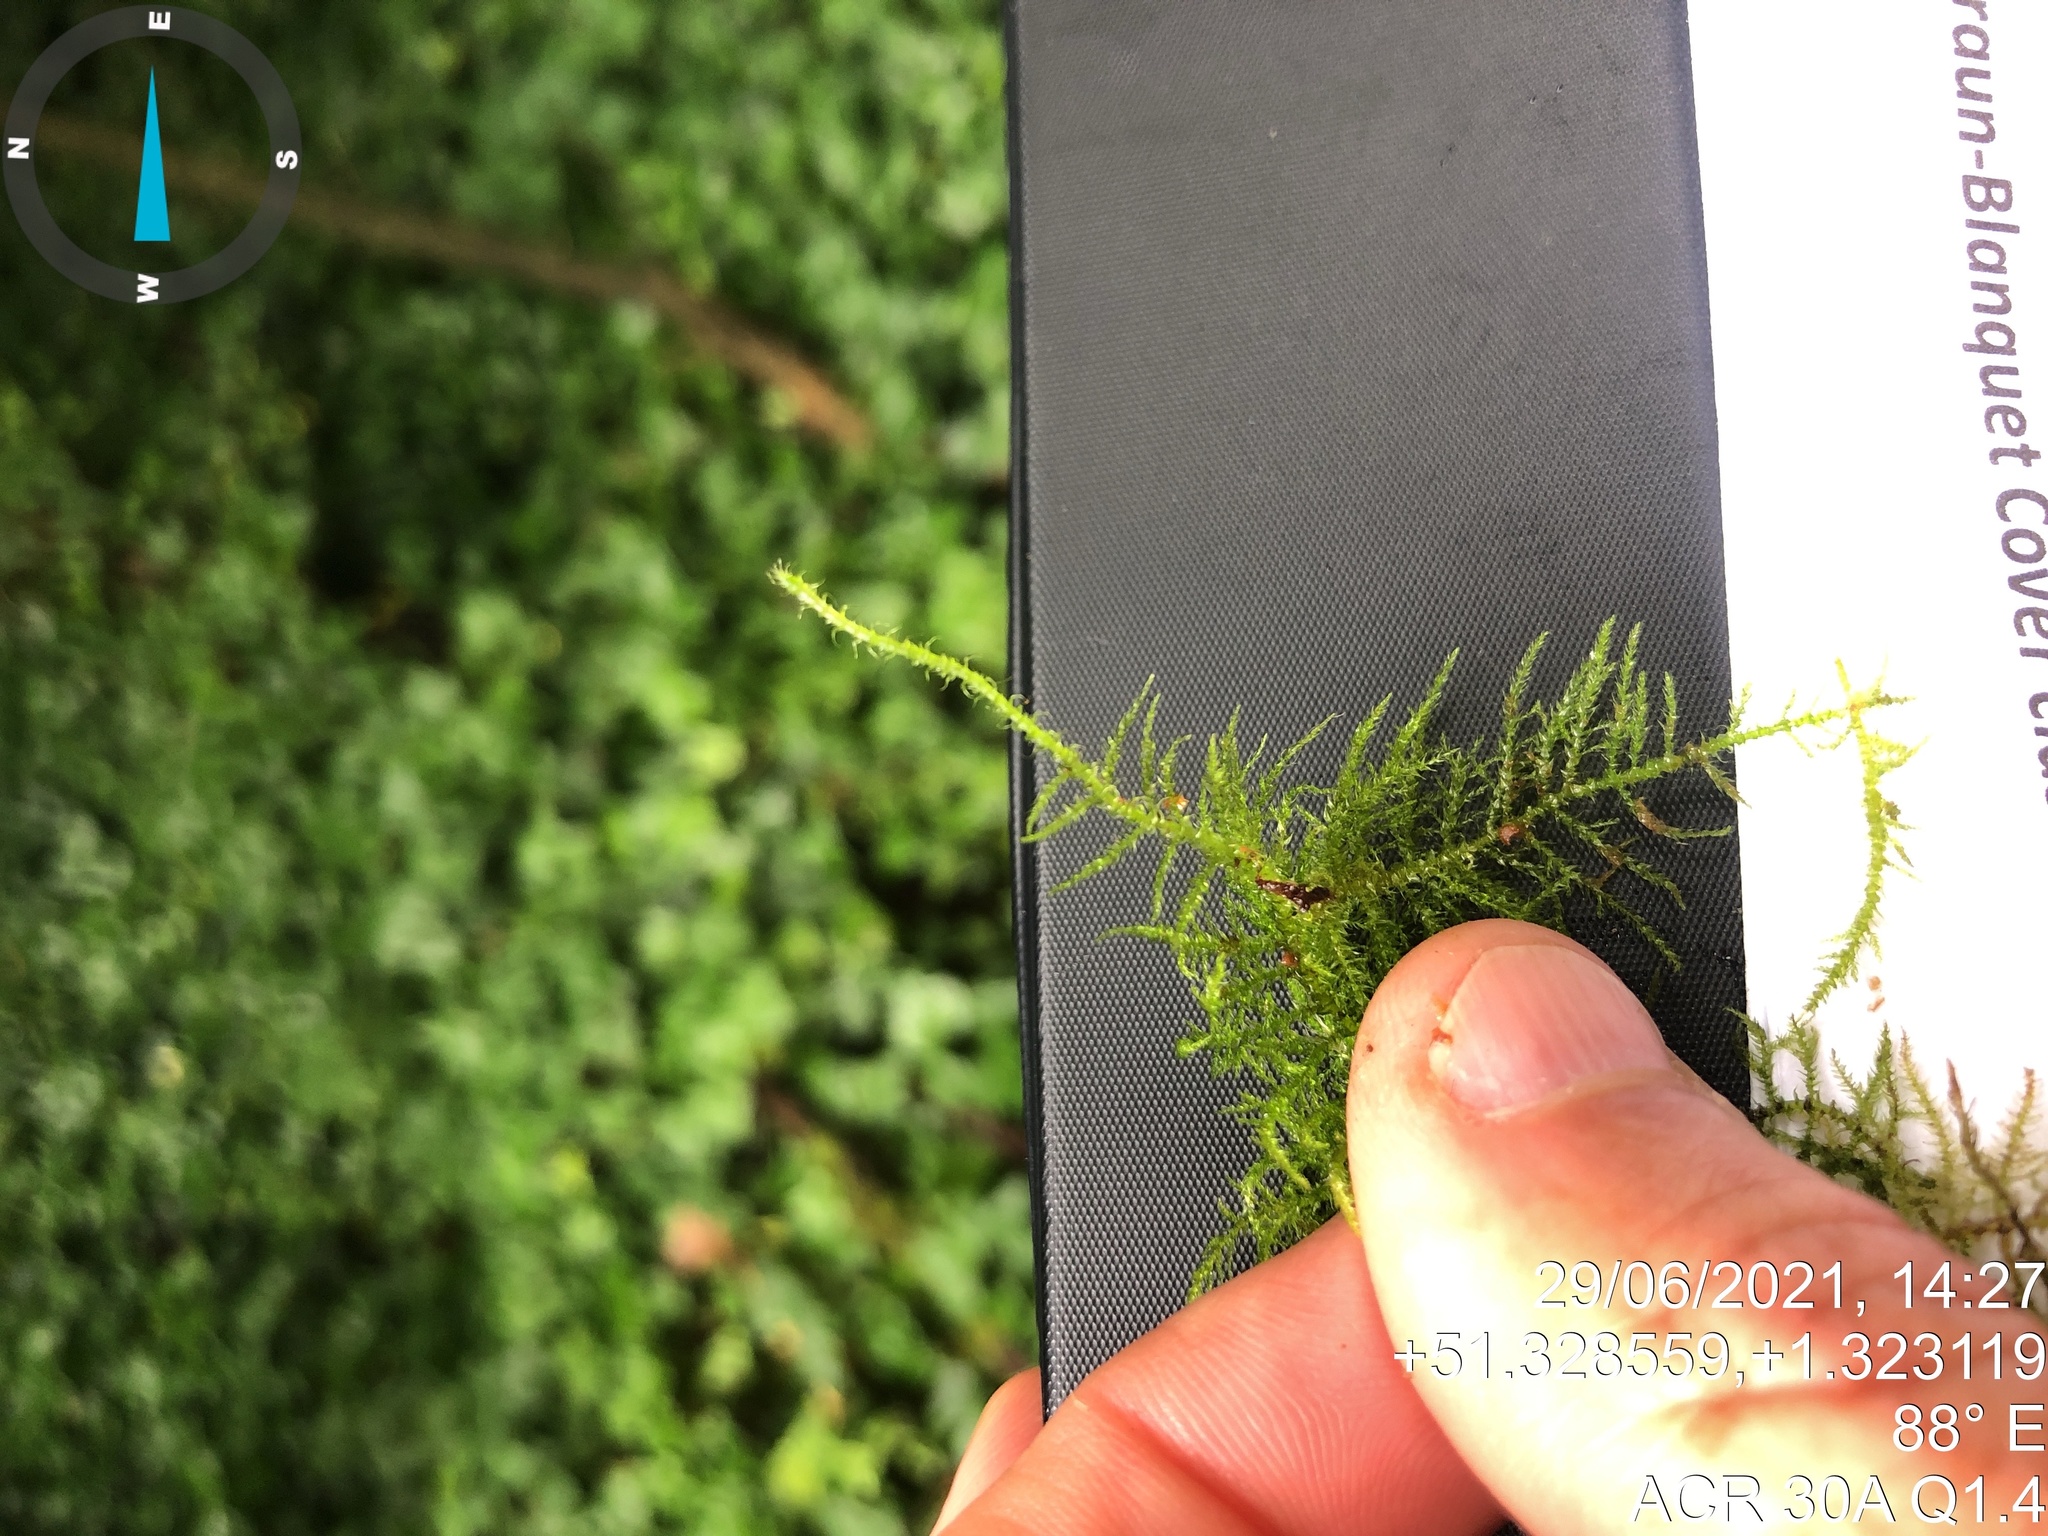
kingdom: Plantae
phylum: Bryophyta
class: Bryopsida
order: Hypnales
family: Brachytheciaceae
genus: Kindbergia
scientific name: Kindbergia praelonga
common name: Slender beaked moss
